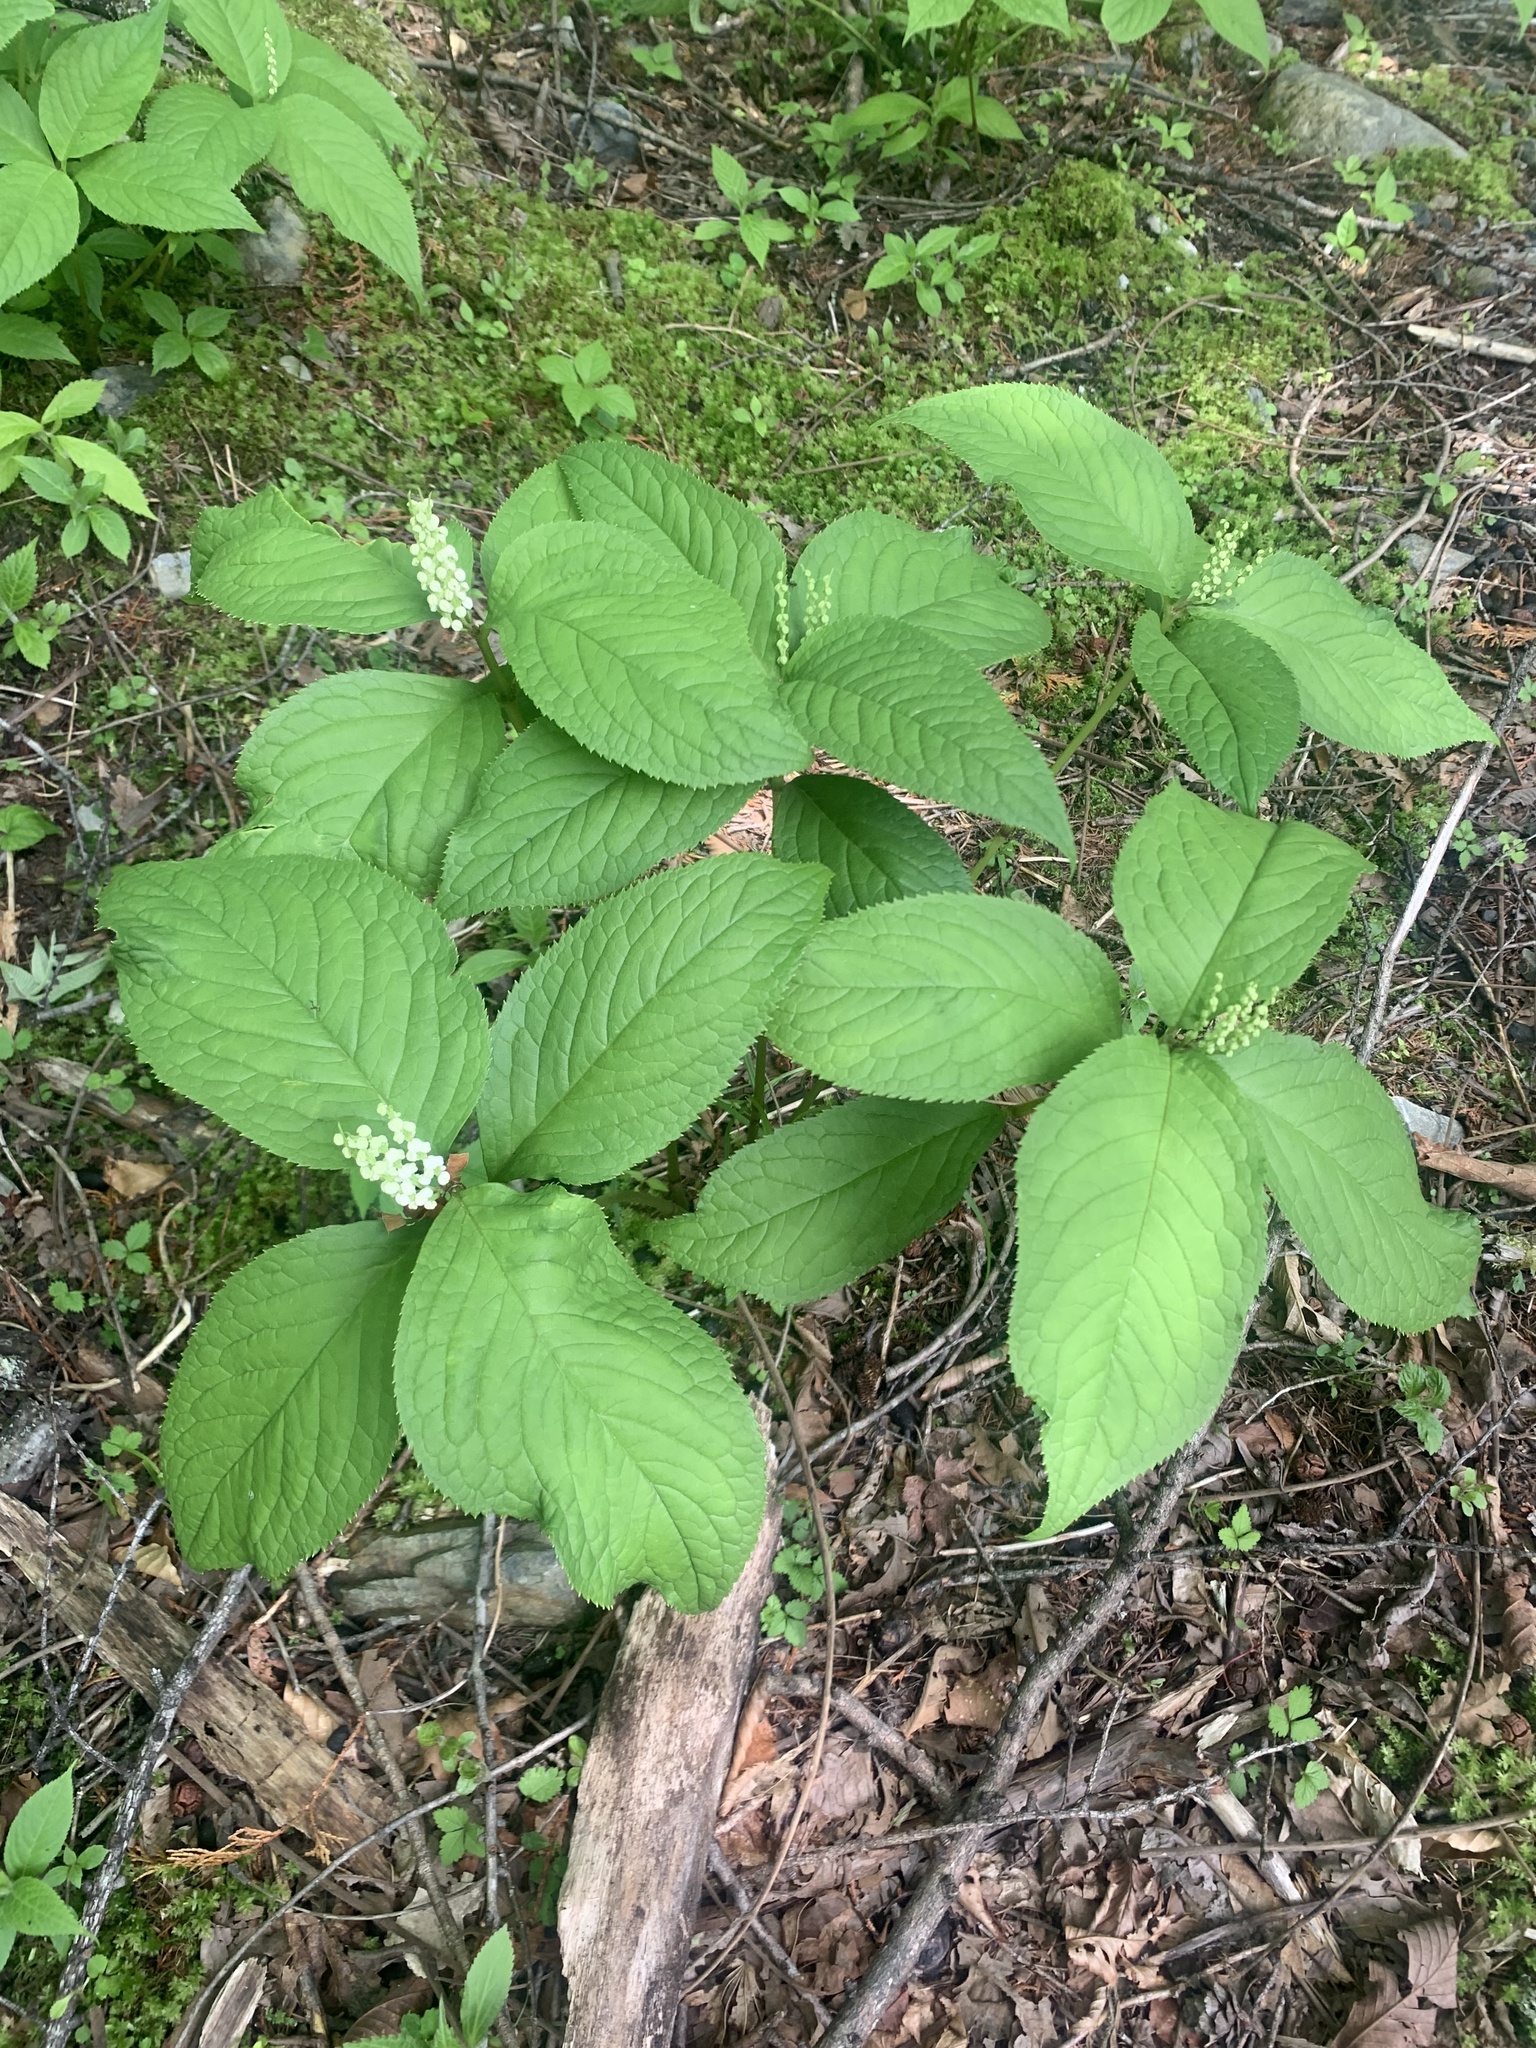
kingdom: Plantae
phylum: Tracheophyta
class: Magnoliopsida
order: Chloranthales
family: Chloranthaceae
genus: Chloranthus
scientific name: Chloranthus serratus
